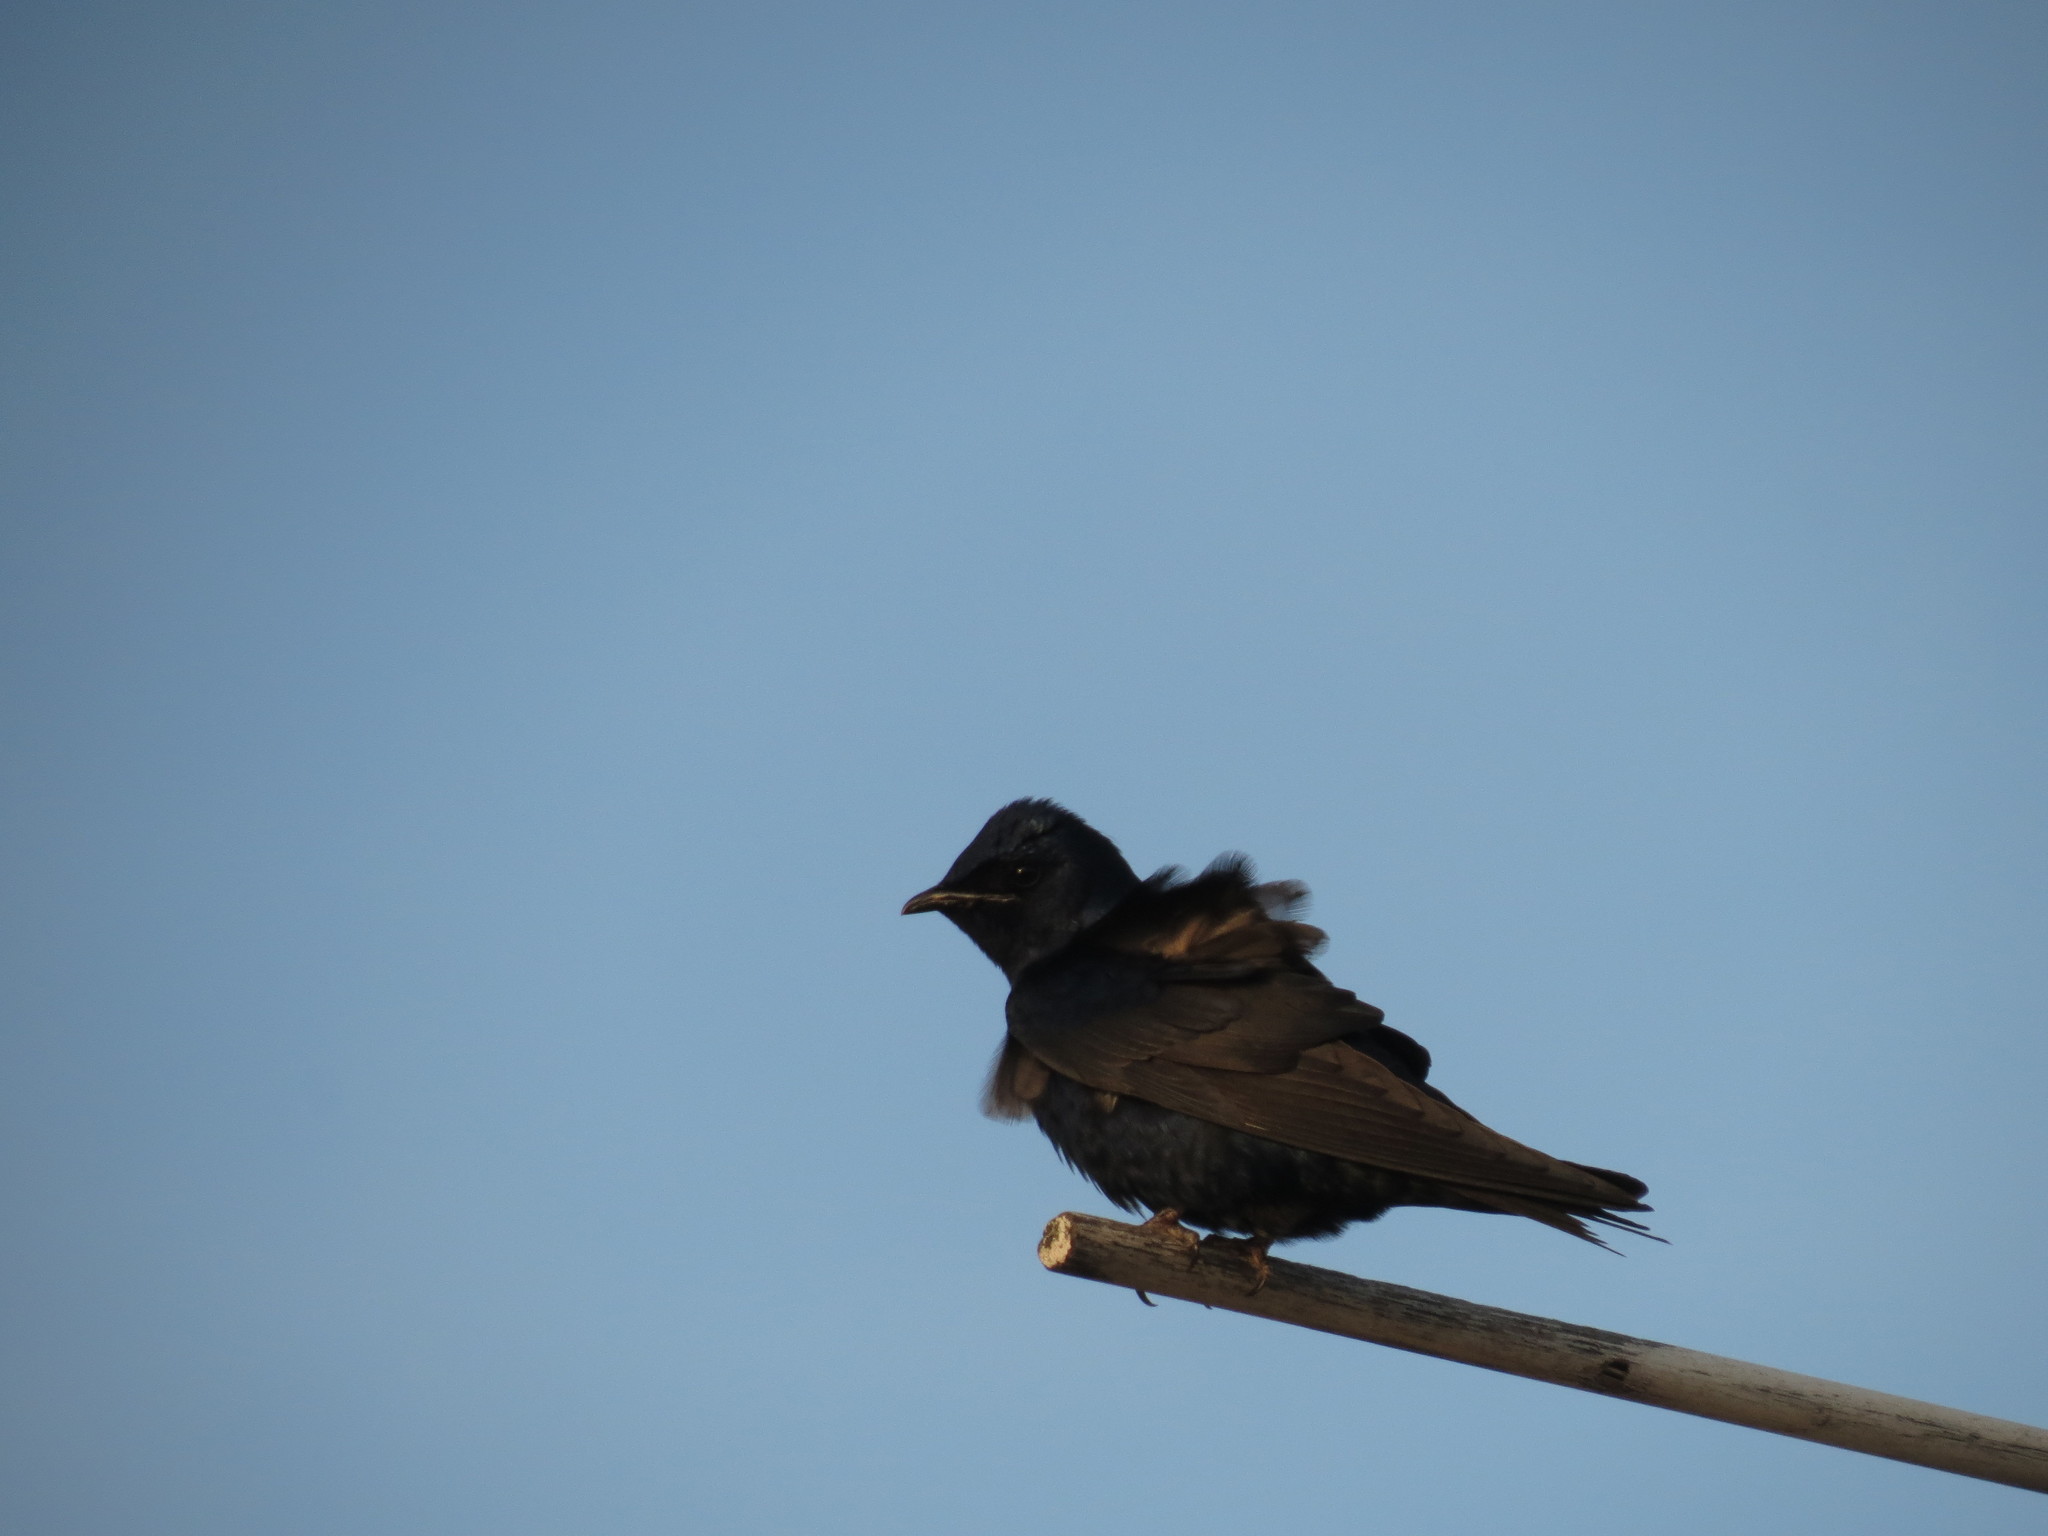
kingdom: Animalia
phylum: Chordata
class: Aves
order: Passeriformes
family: Hirundinidae
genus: Progne
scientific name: Progne subis
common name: Purple martin
